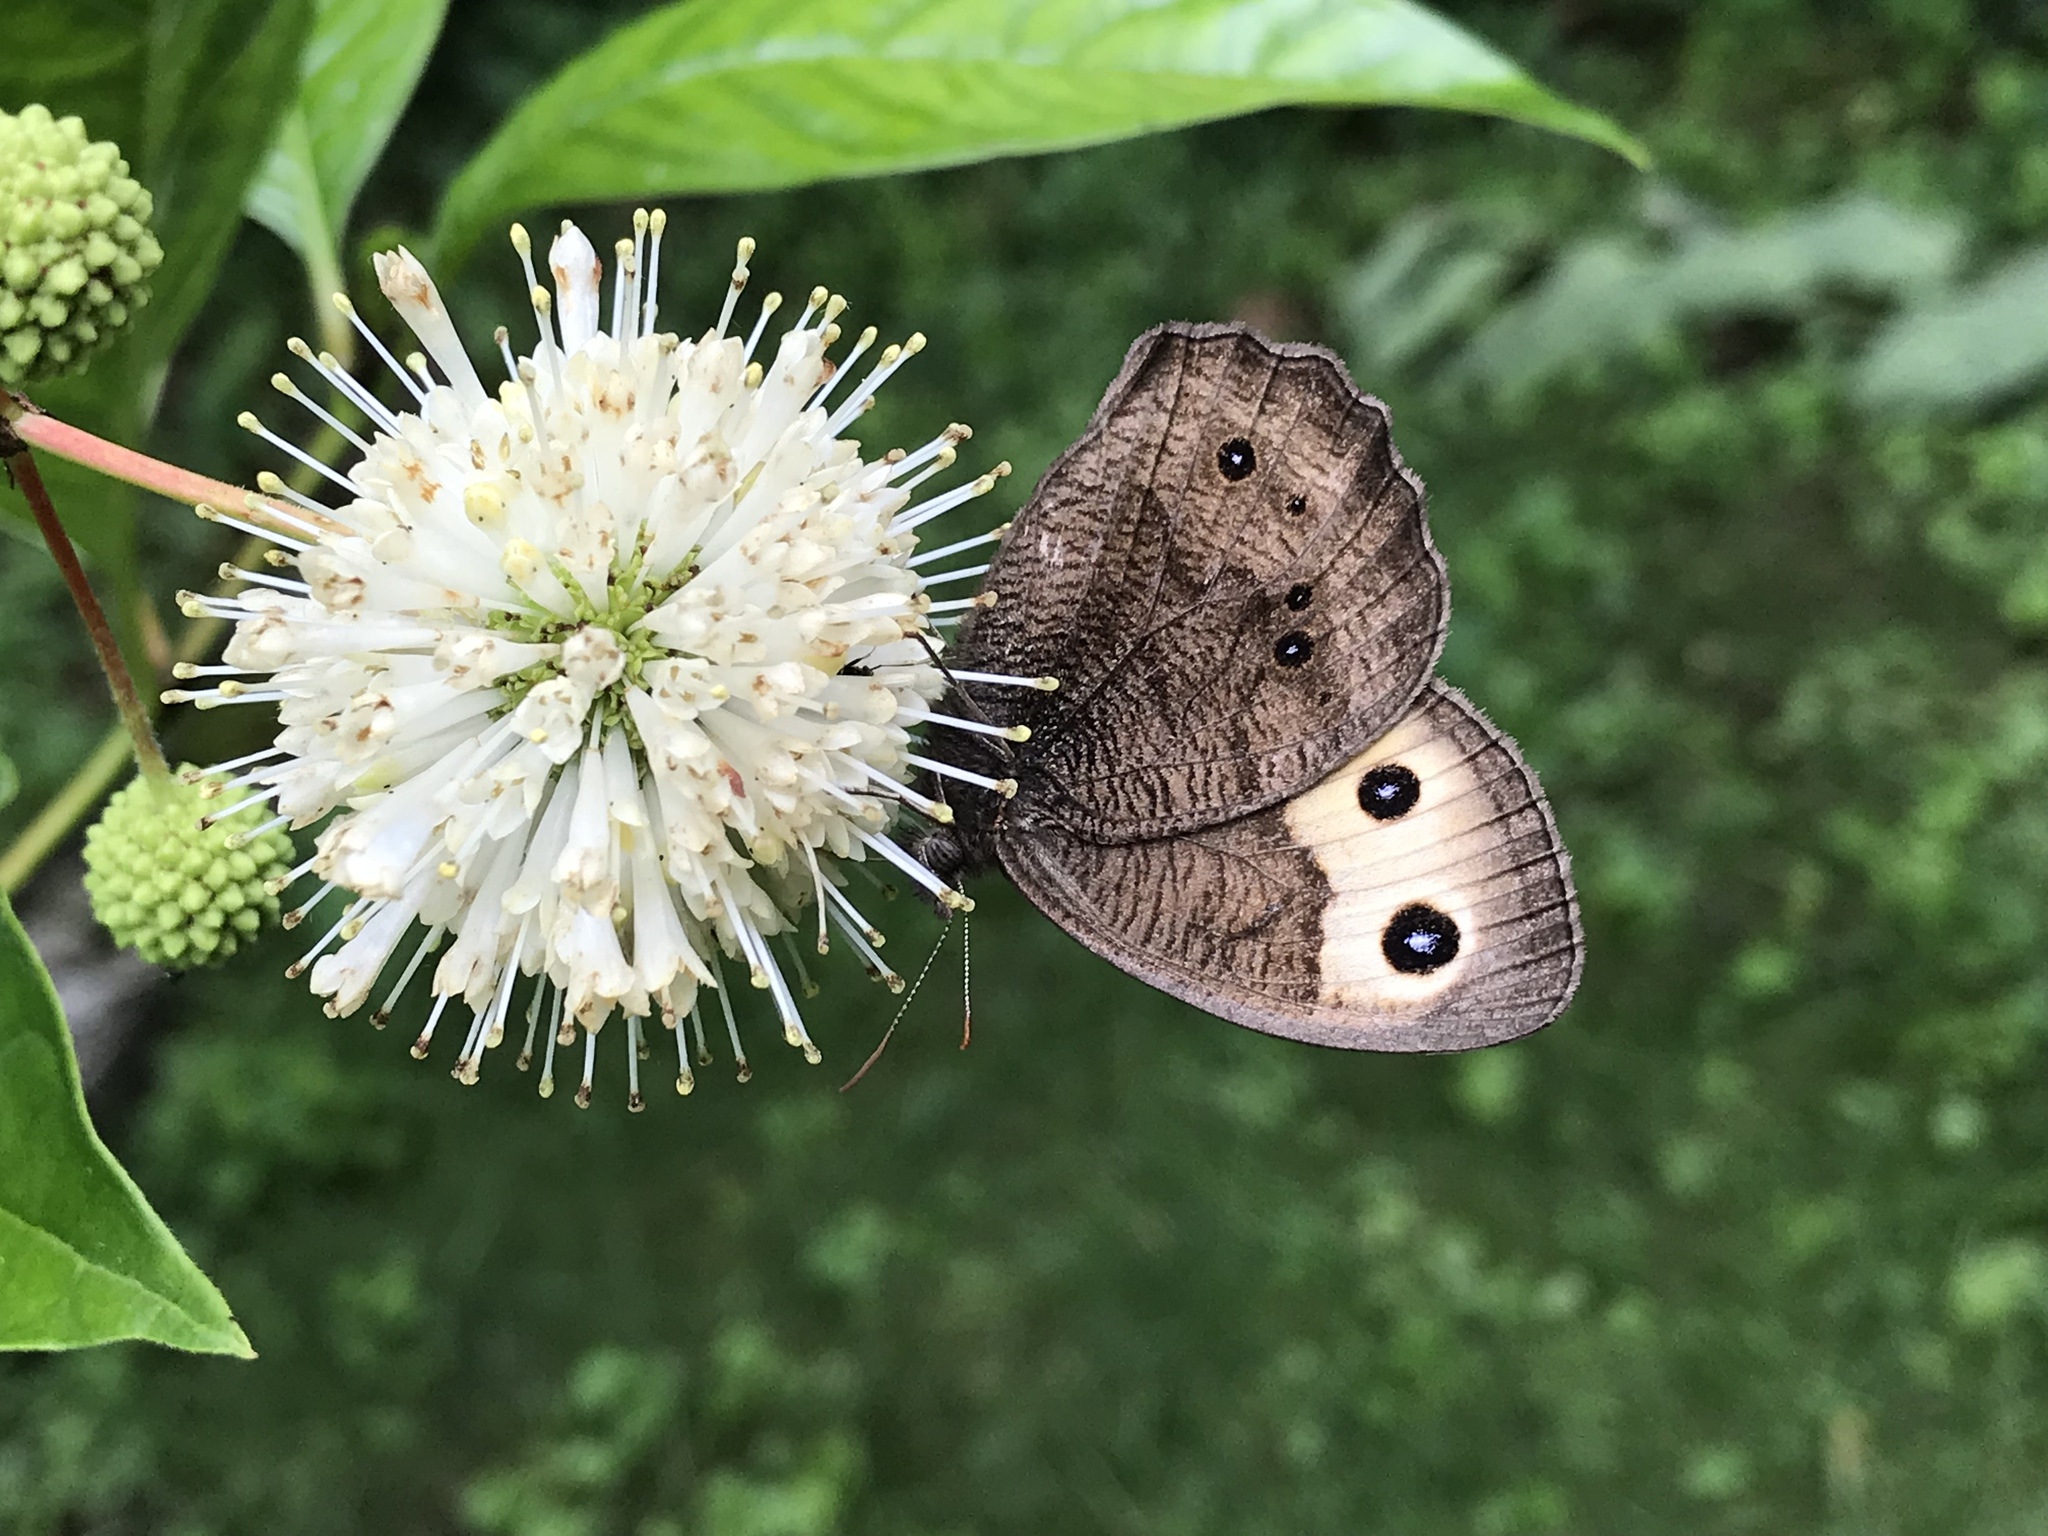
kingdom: Animalia
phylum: Arthropoda
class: Insecta
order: Lepidoptera
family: Nymphalidae
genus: Cercyonis
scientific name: Cercyonis pegala
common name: Common wood-nymph
